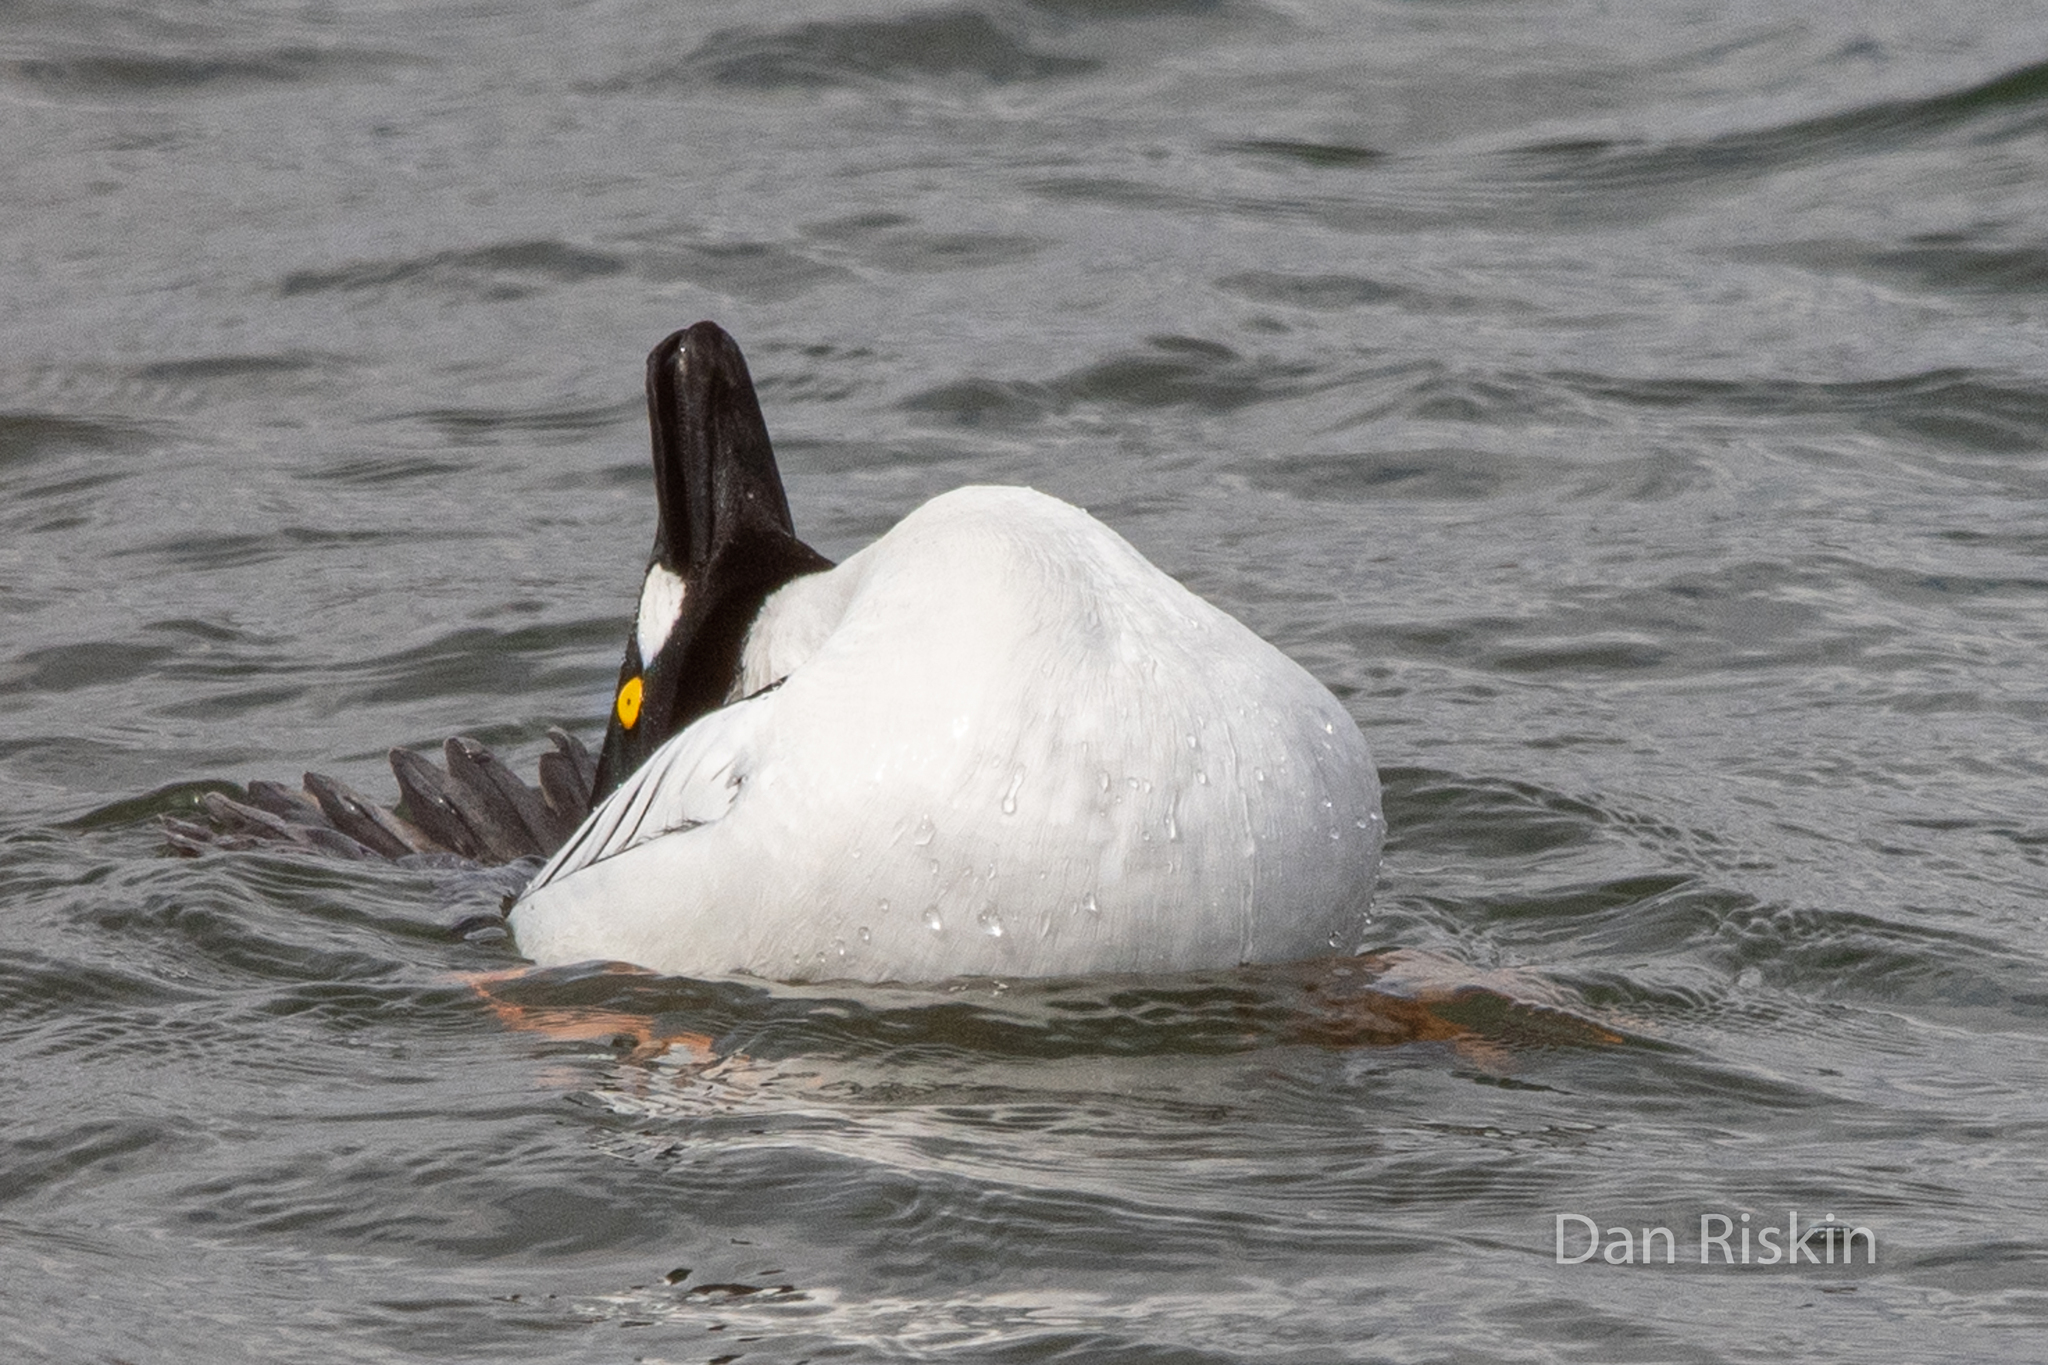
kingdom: Animalia
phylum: Chordata
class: Aves
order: Anseriformes
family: Anatidae
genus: Bucephala
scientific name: Bucephala clangula
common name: Common goldeneye
